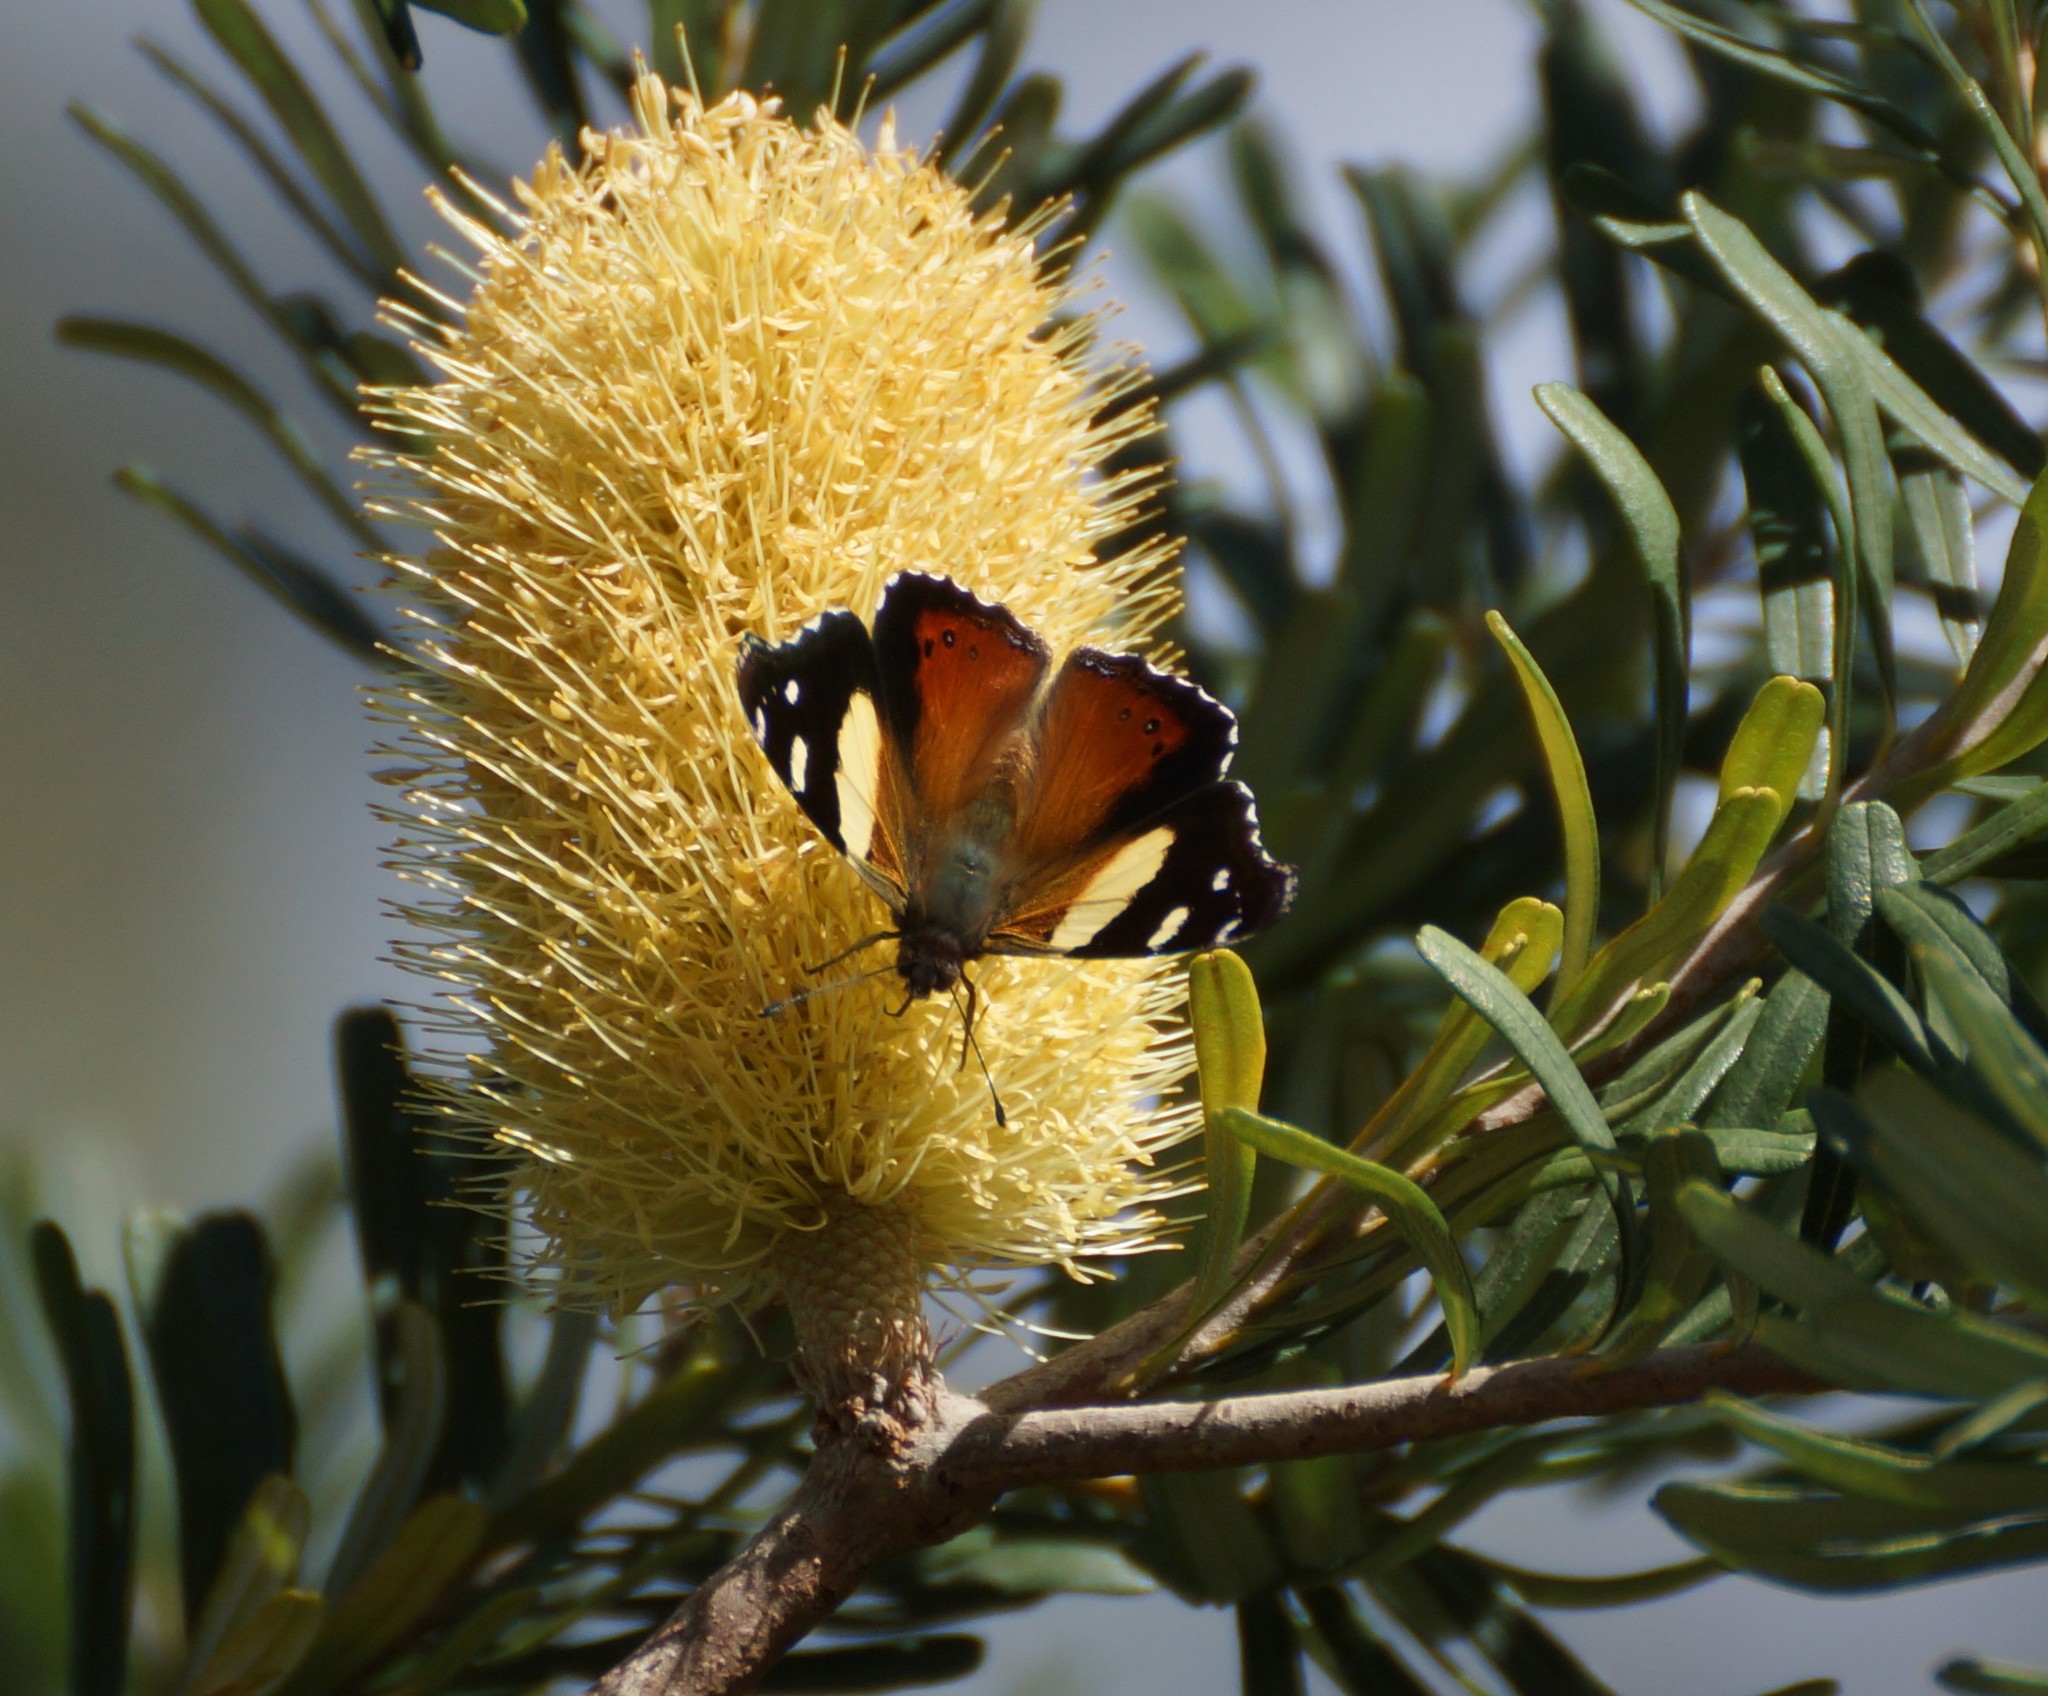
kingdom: Animalia
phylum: Arthropoda
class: Insecta
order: Lepidoptera
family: Nymphalidae
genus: Vanessa
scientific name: Vanessa itea
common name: Yellow admiral
